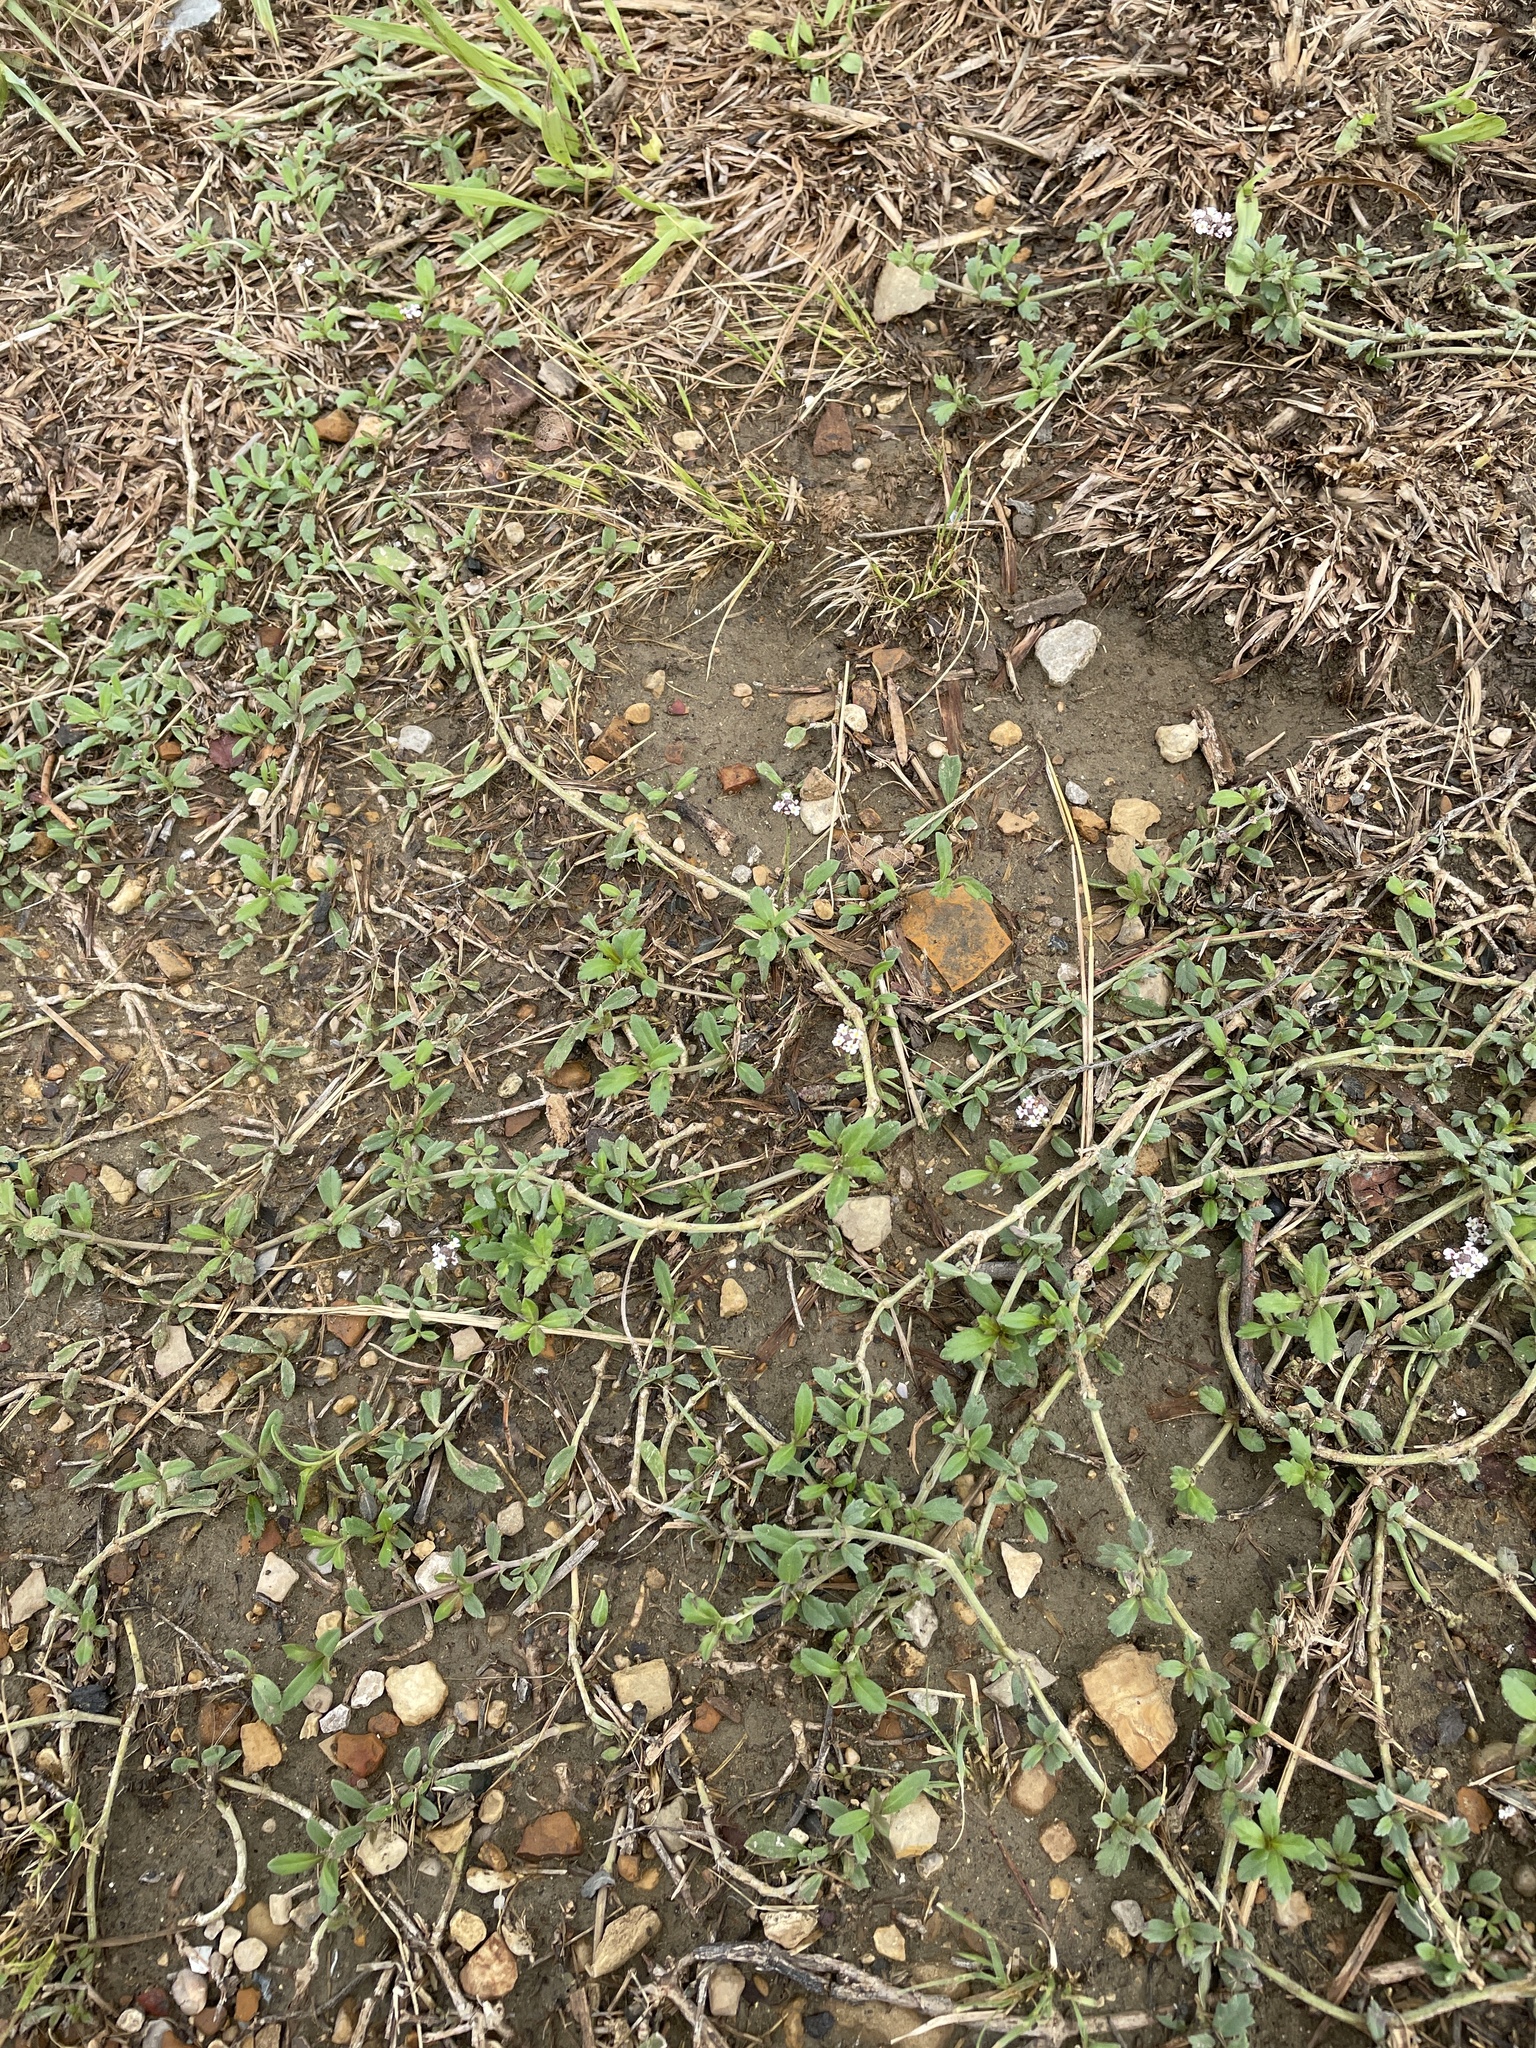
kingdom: Plantae
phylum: Tracheophyta
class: Magnoliopsida
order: Lamiales
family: Verbenaceae
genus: Phyla
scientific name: Phyla nodiflora
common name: Frogfruit
